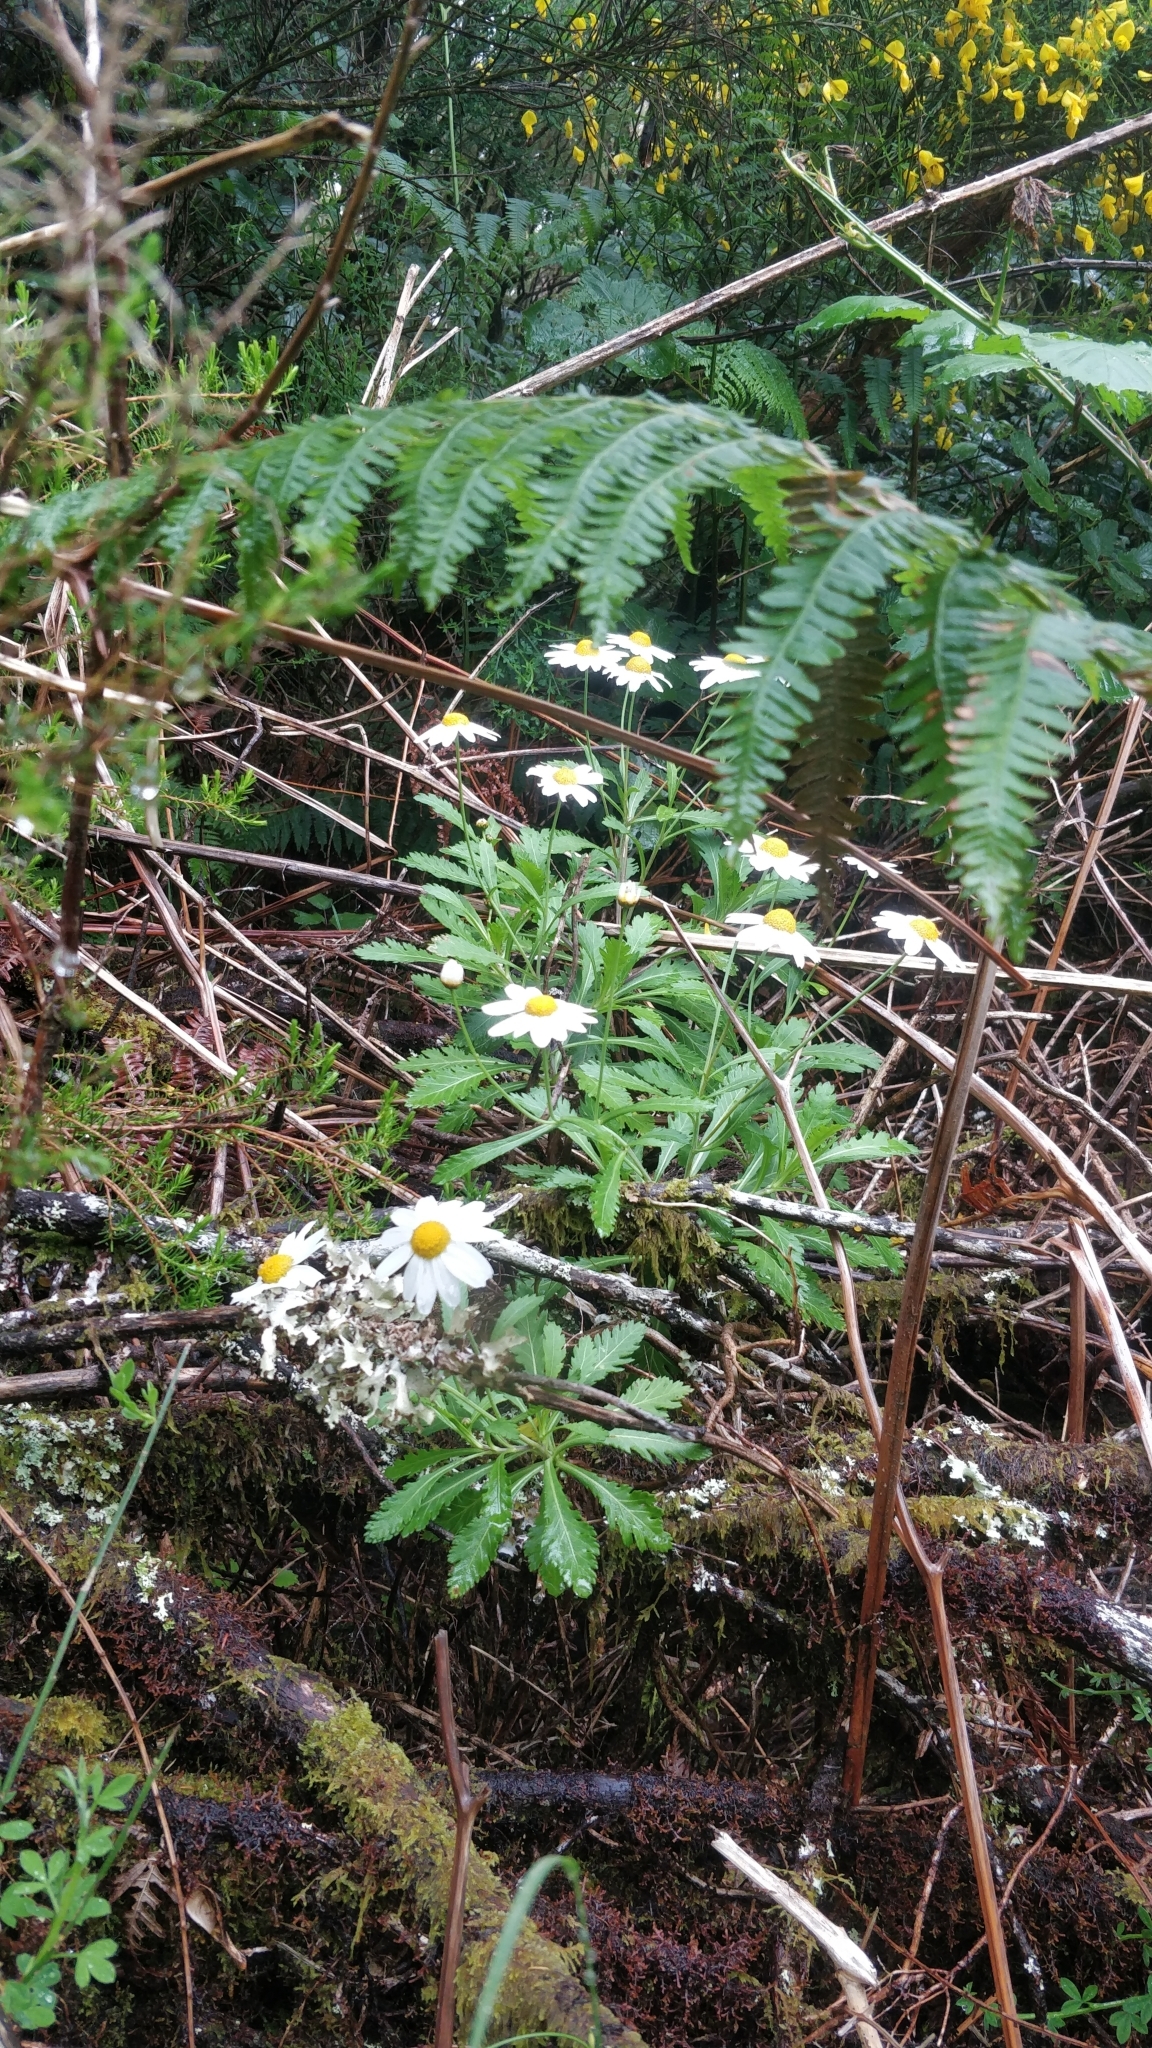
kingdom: Plantae
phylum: Tracheophyta
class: Magnoliopsida
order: Asterales
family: Asteraceae
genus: Argyranthemum
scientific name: Argyranthemum pinnatifidum
